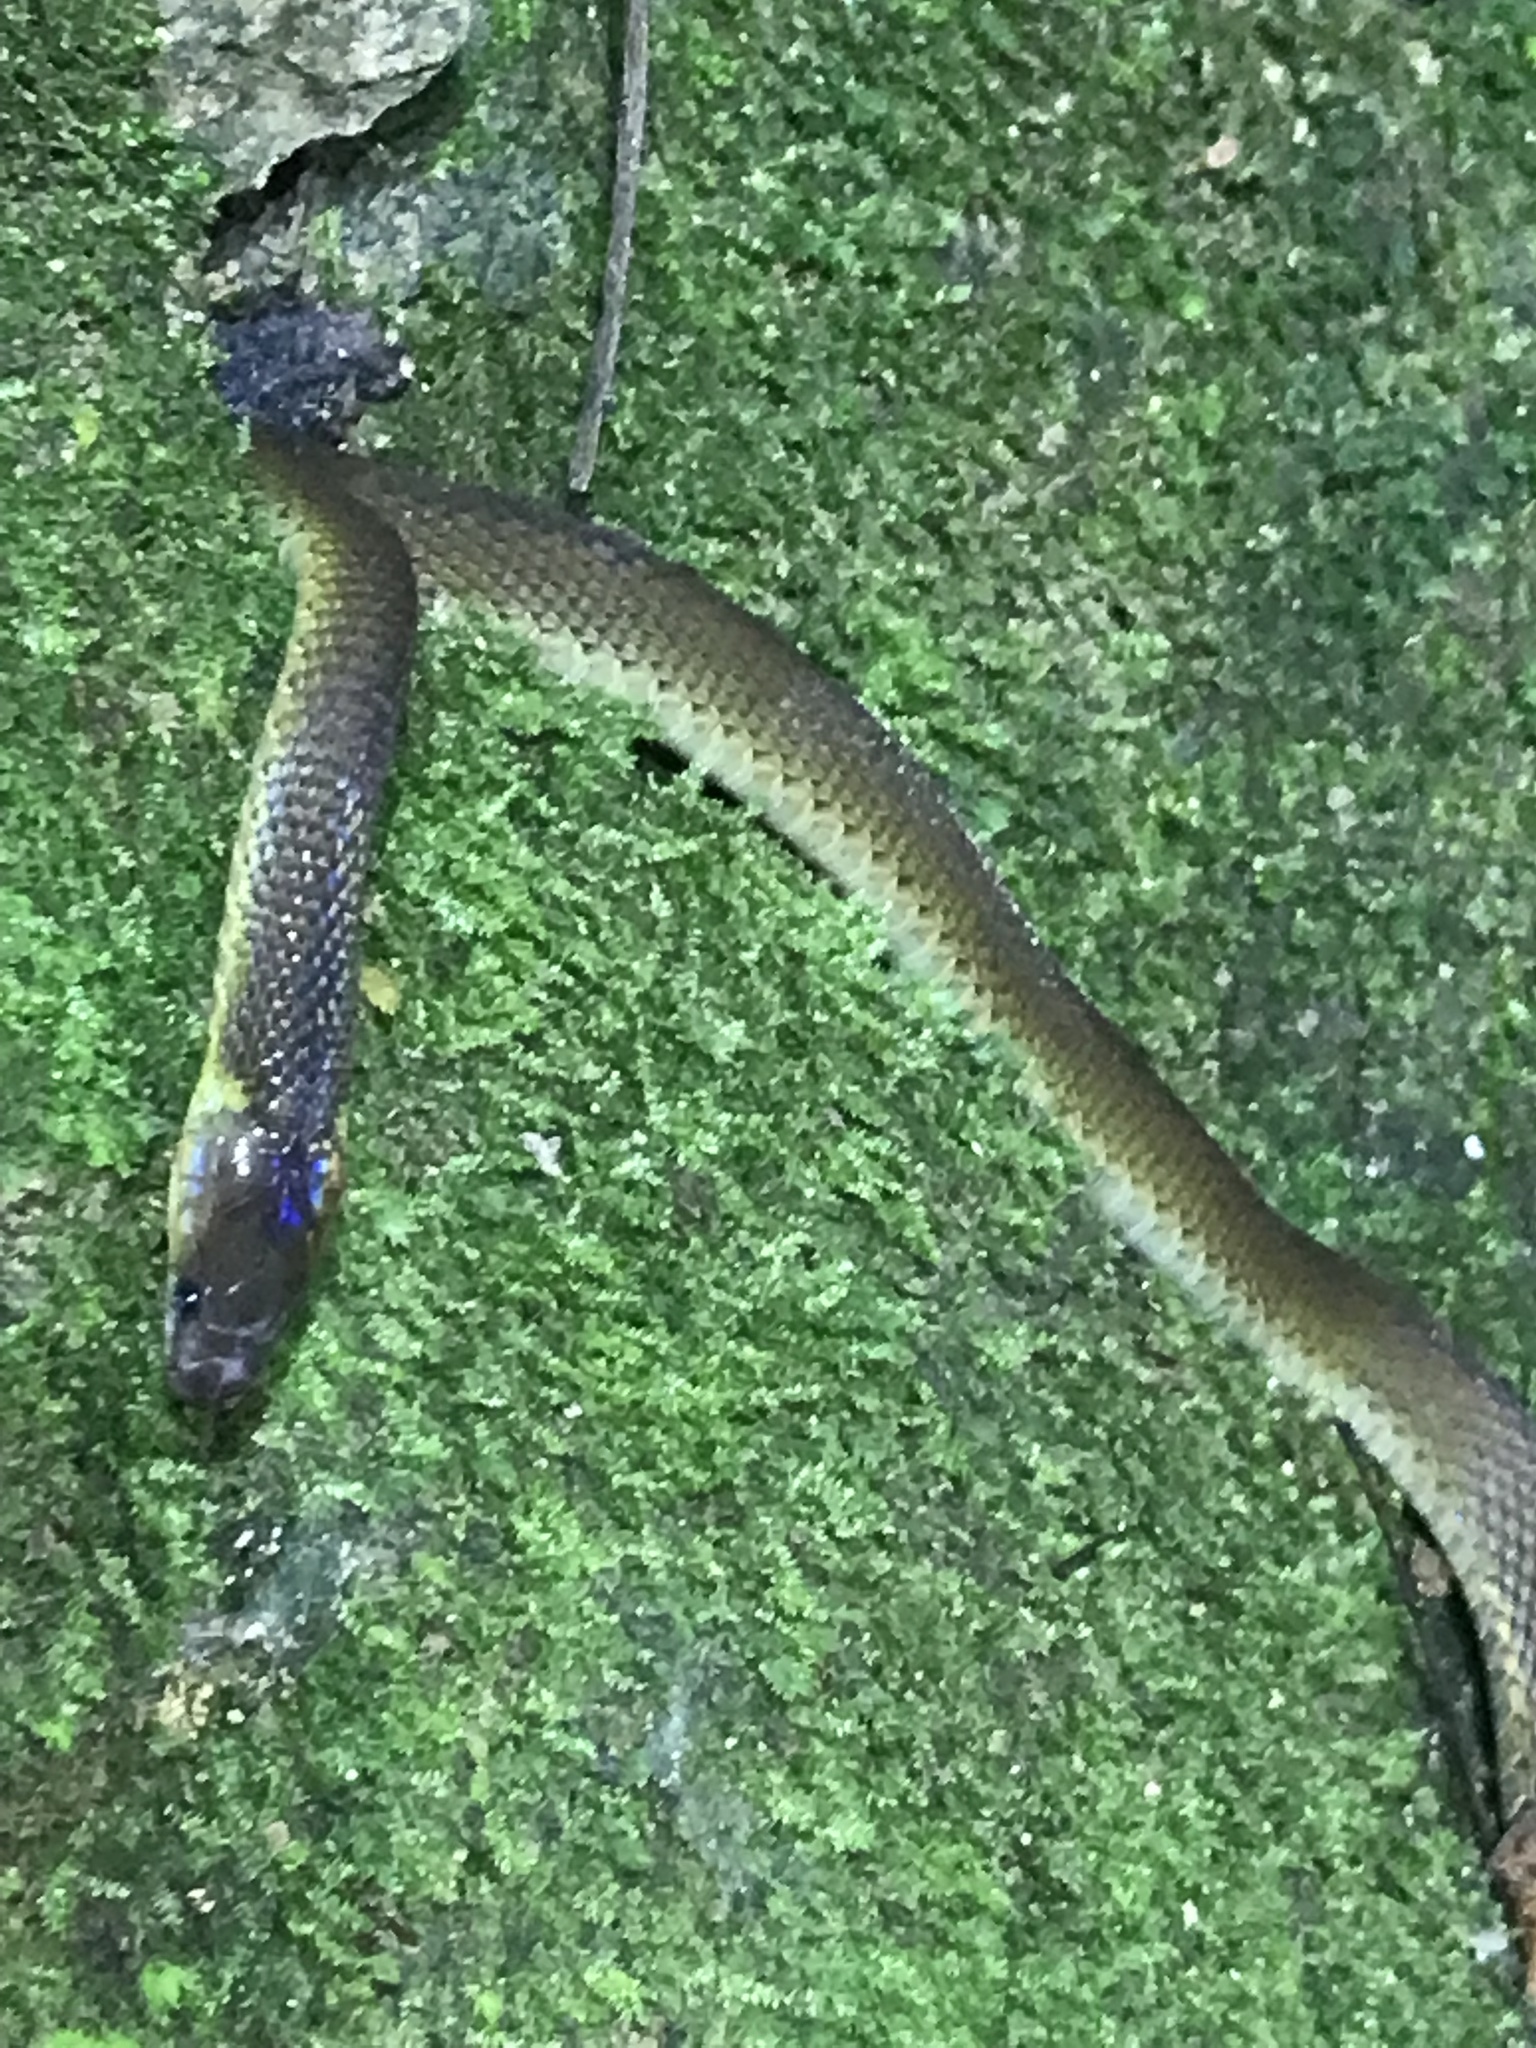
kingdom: Animalia
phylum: Chordata
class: Squamata
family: Xenodermidae
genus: Achalinus
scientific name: Achalinus rufescens
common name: Rufous burrowing snake
